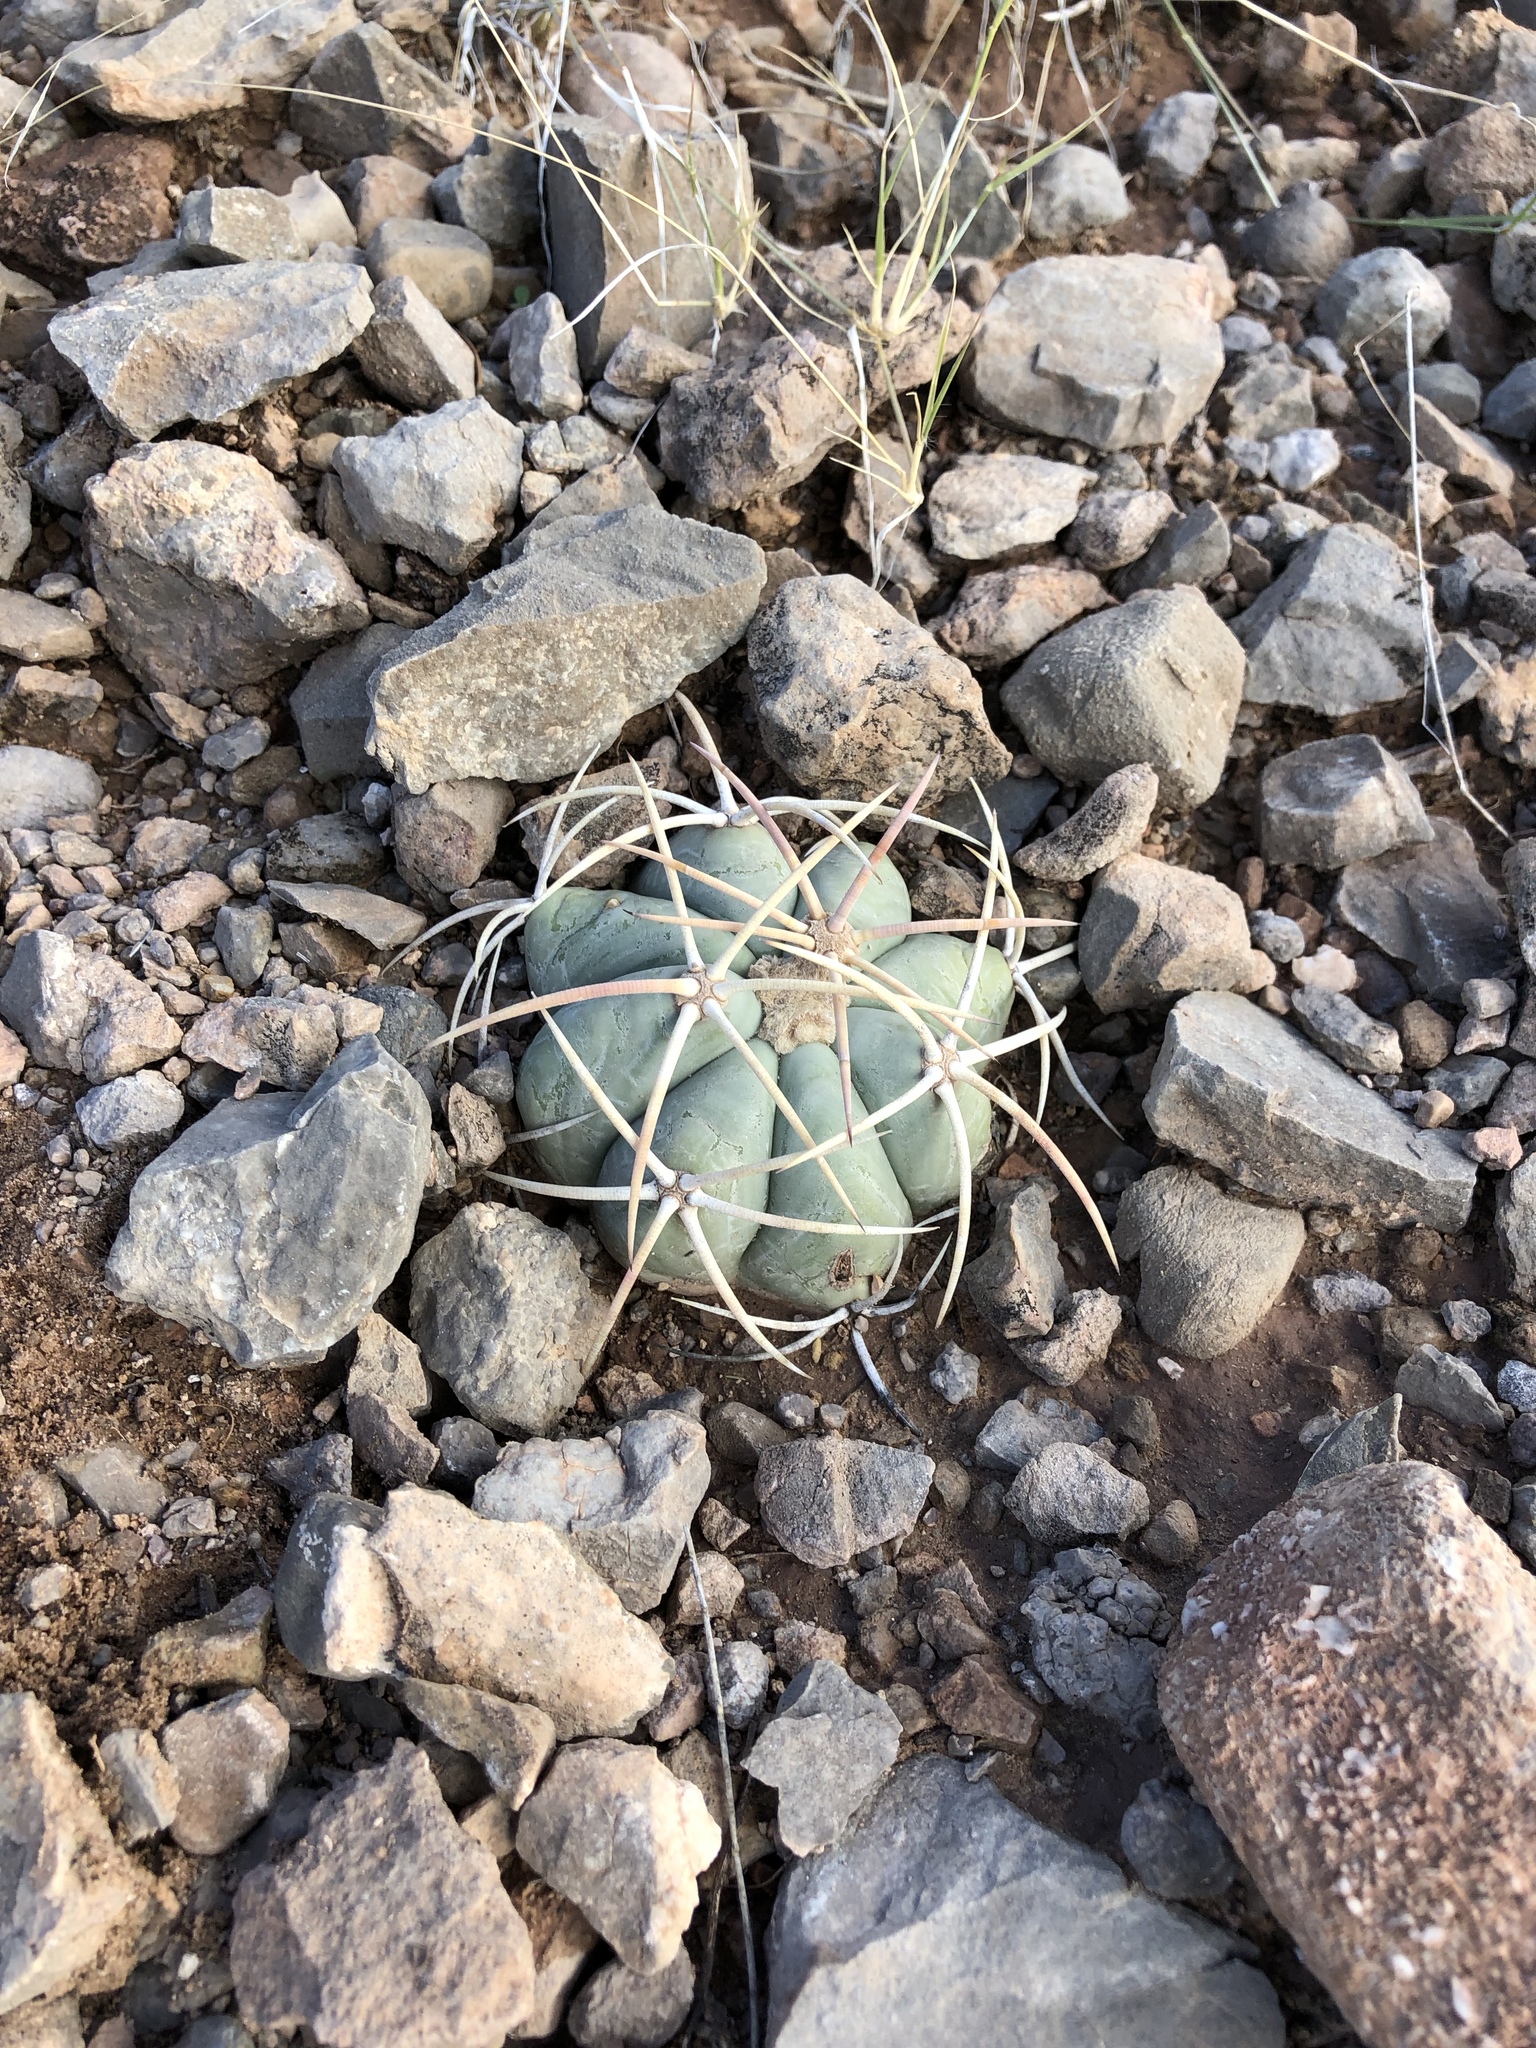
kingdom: Plantae
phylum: Tracheophyta
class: Magnoliopsida
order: Caryophyllales
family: Cactaceae
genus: Echinocactus
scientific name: Echinocactus horizonthalonius
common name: Devilshead
